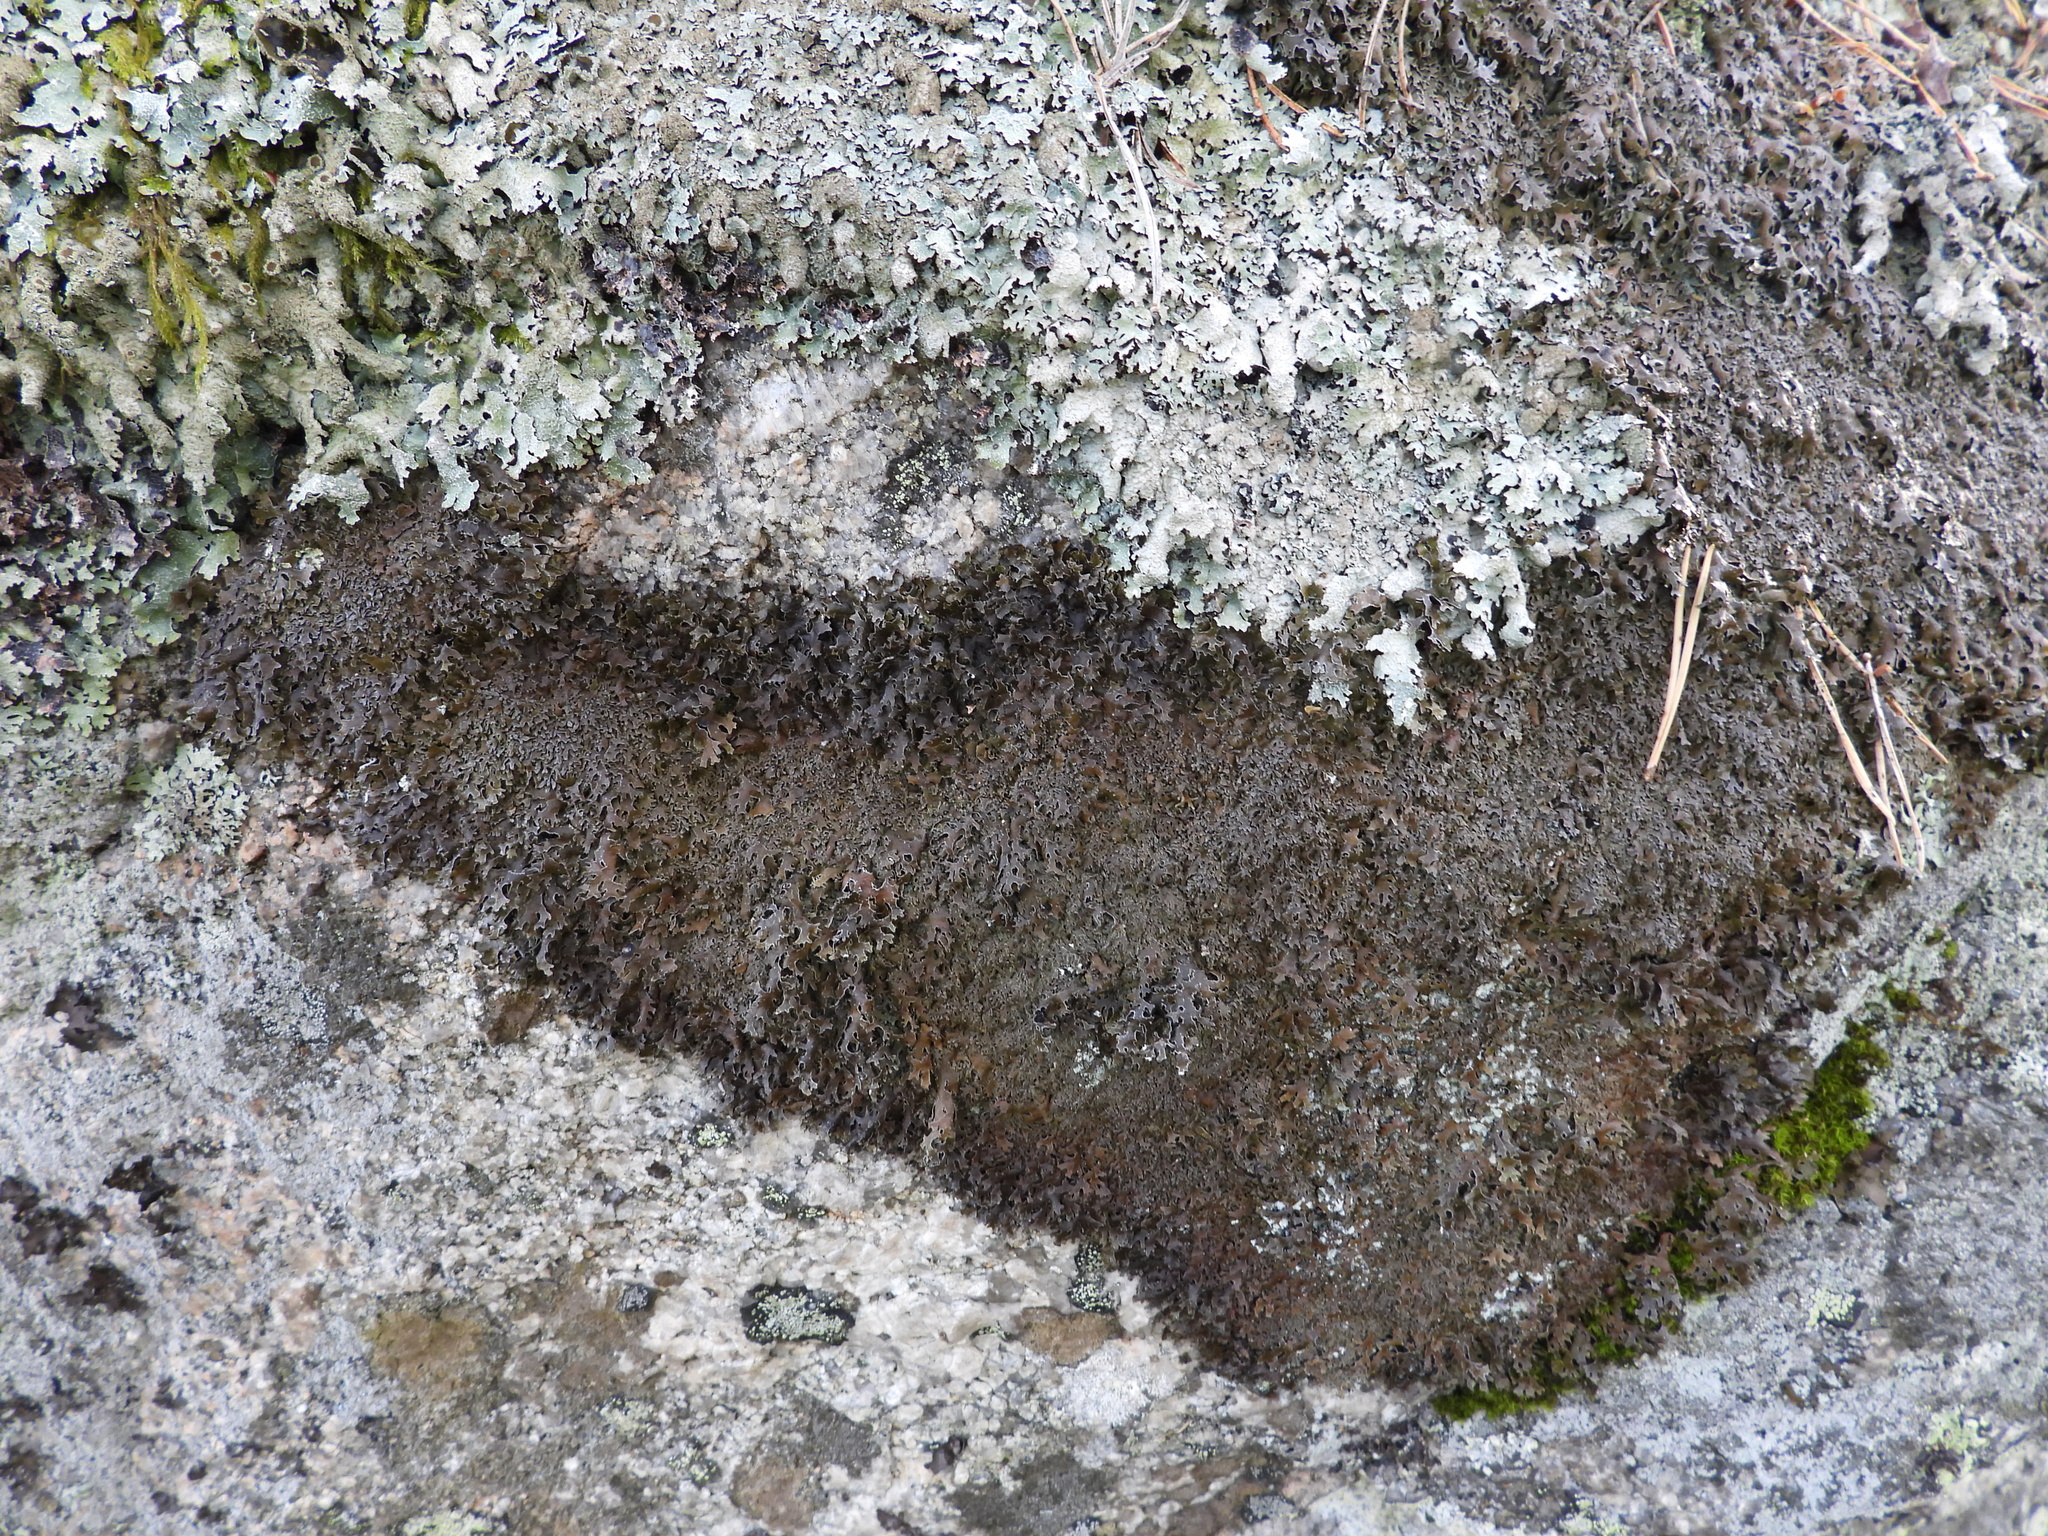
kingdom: Fungi
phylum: Ascomycota
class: Lecanoromycetes
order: Lecanorales
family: Parmeliaceae
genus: Parmelia
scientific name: Parmelia pinnatifida
